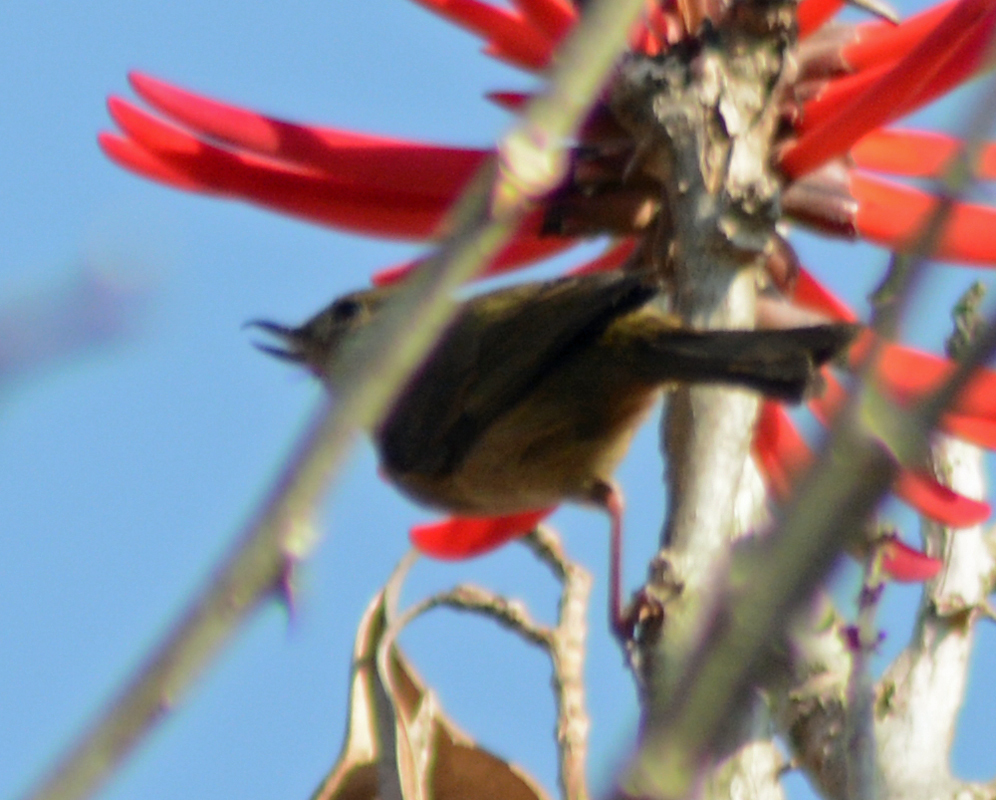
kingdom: Animalia
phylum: Chordata
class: Aves
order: Passeriformes
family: Thraupidae
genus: Diglossa
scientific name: Diglossa baritula
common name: Cinnamon-bellied flowerpiercer
